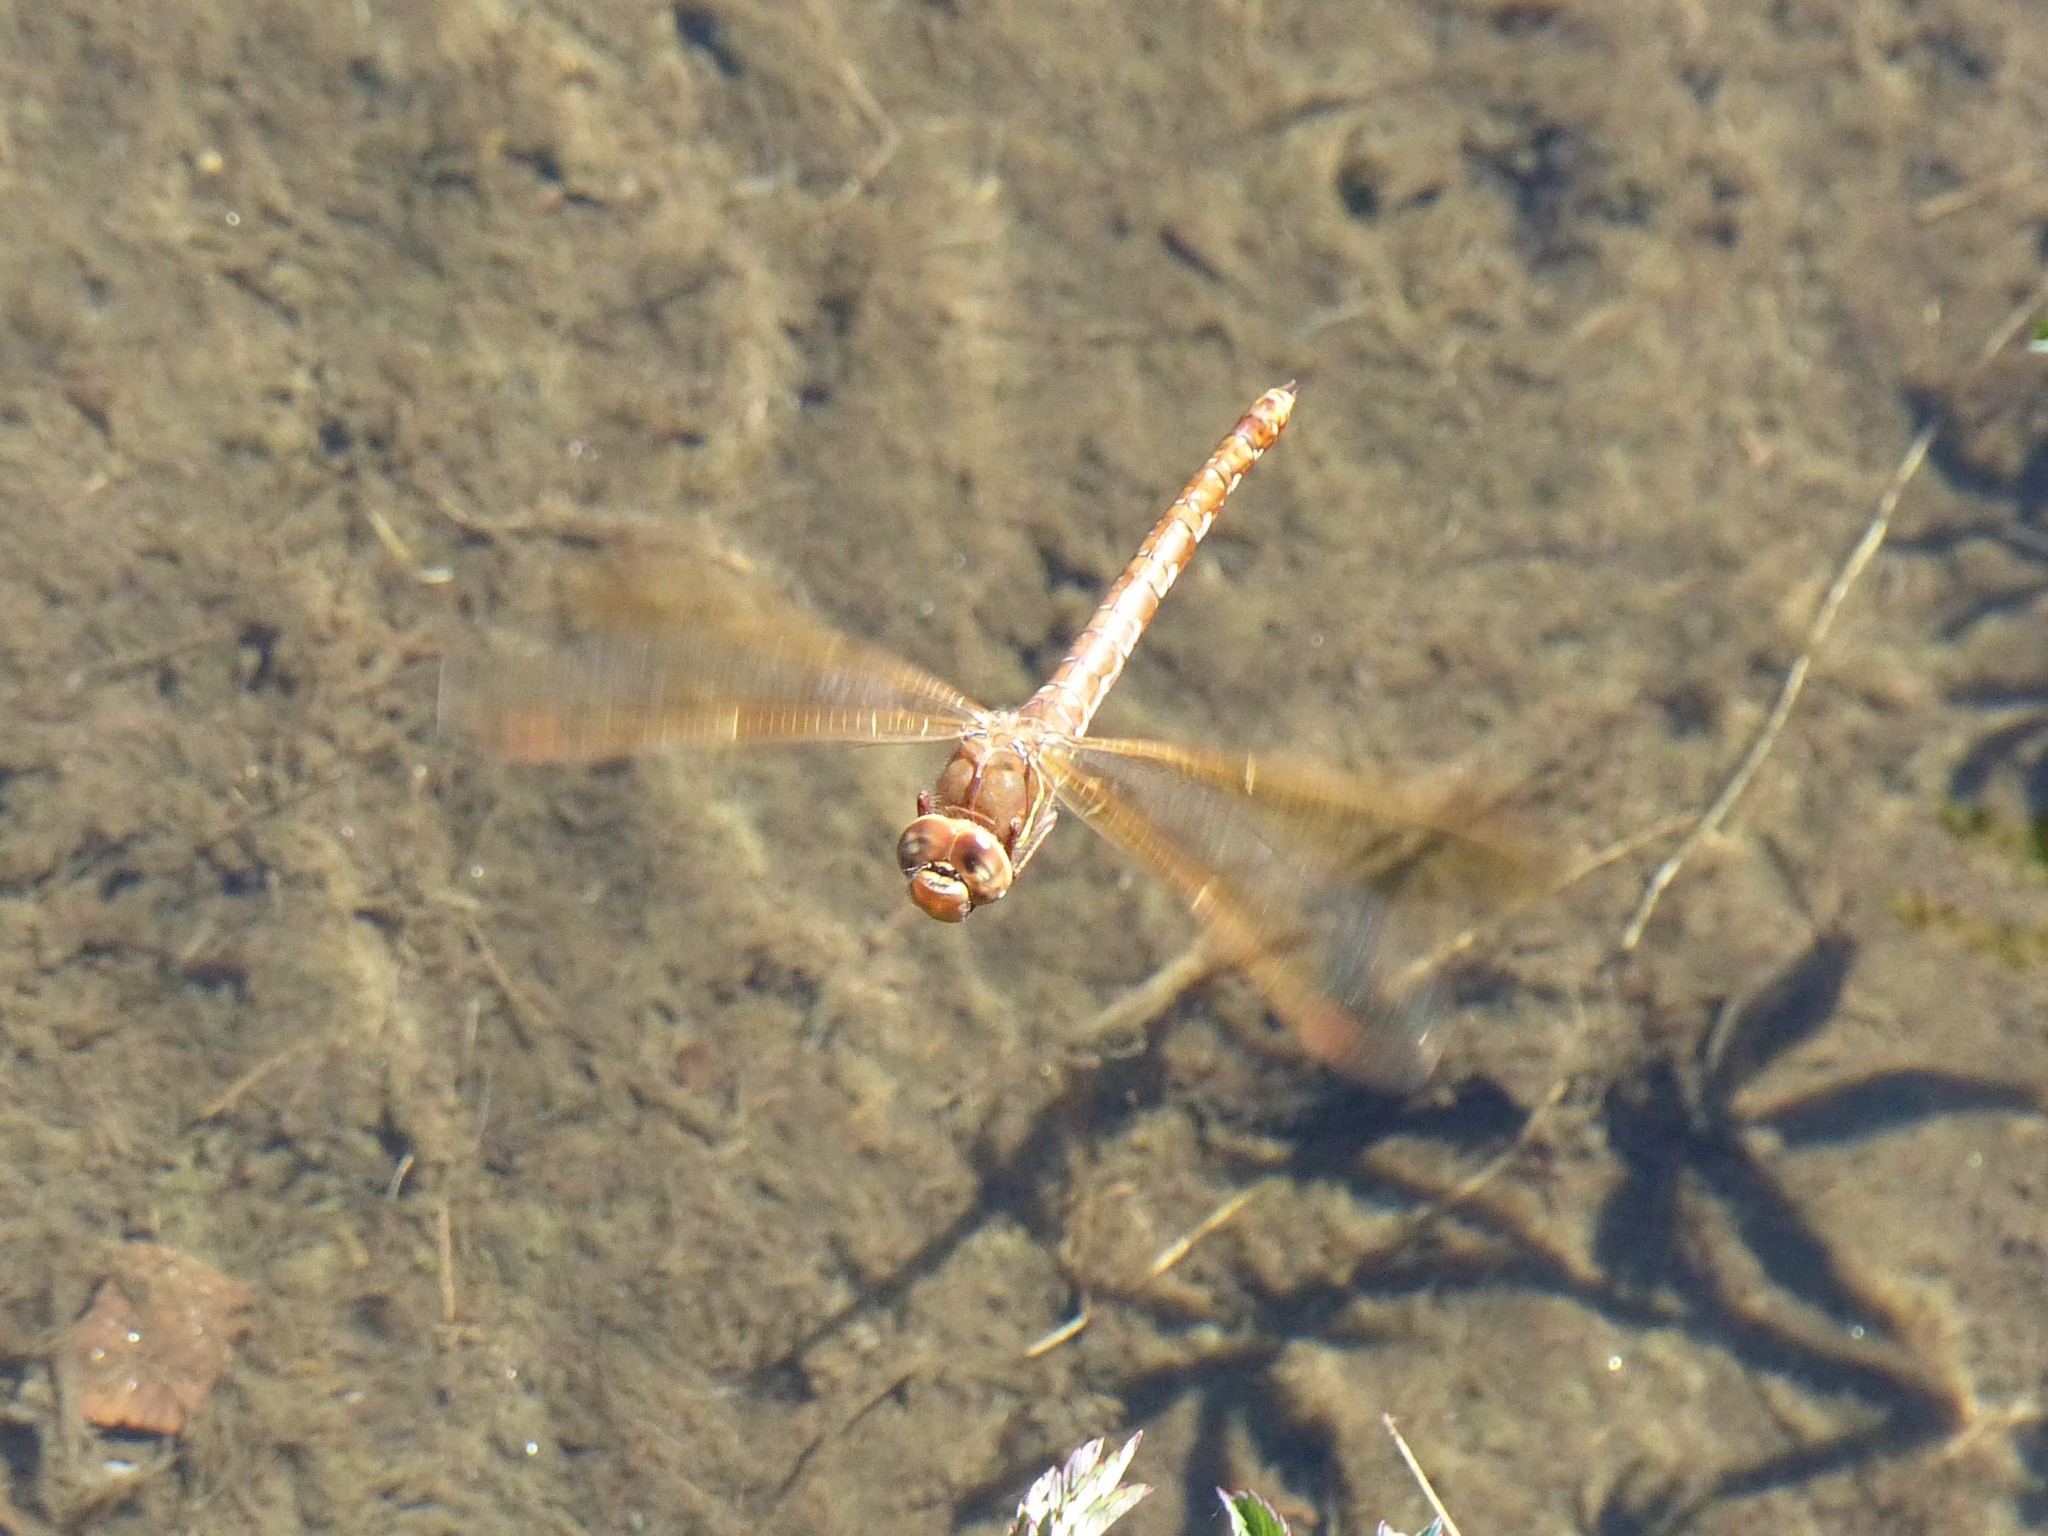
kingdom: Animalia
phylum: Arthropoda
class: Insecta
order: Odonata
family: Aeshnidae
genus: Aeshna
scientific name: Aeshna grandis
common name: Brown hawker
